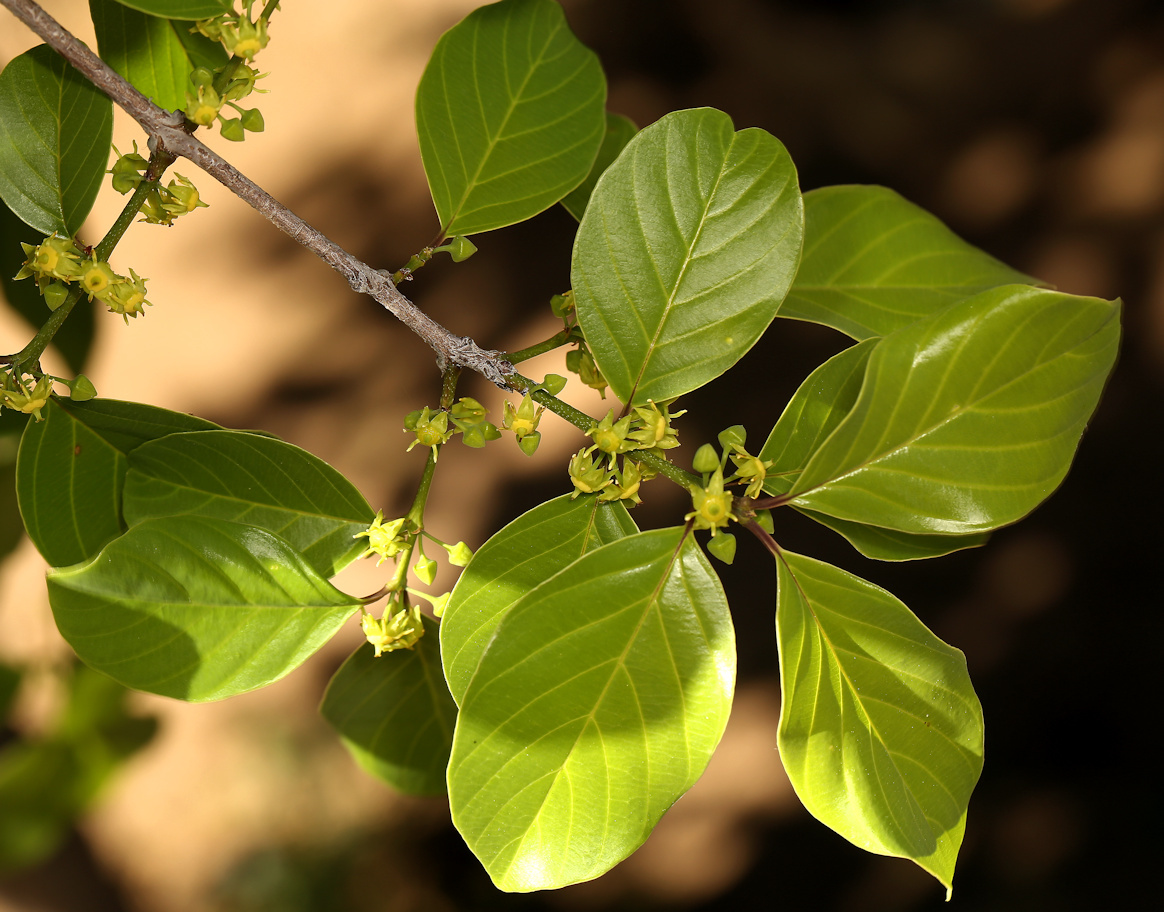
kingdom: Plantae
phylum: Tracheophyta
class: Magnoliopsida
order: Rosales
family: Rhamnaceae
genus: Phyllogeiton
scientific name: Phyllogeiton discolor
